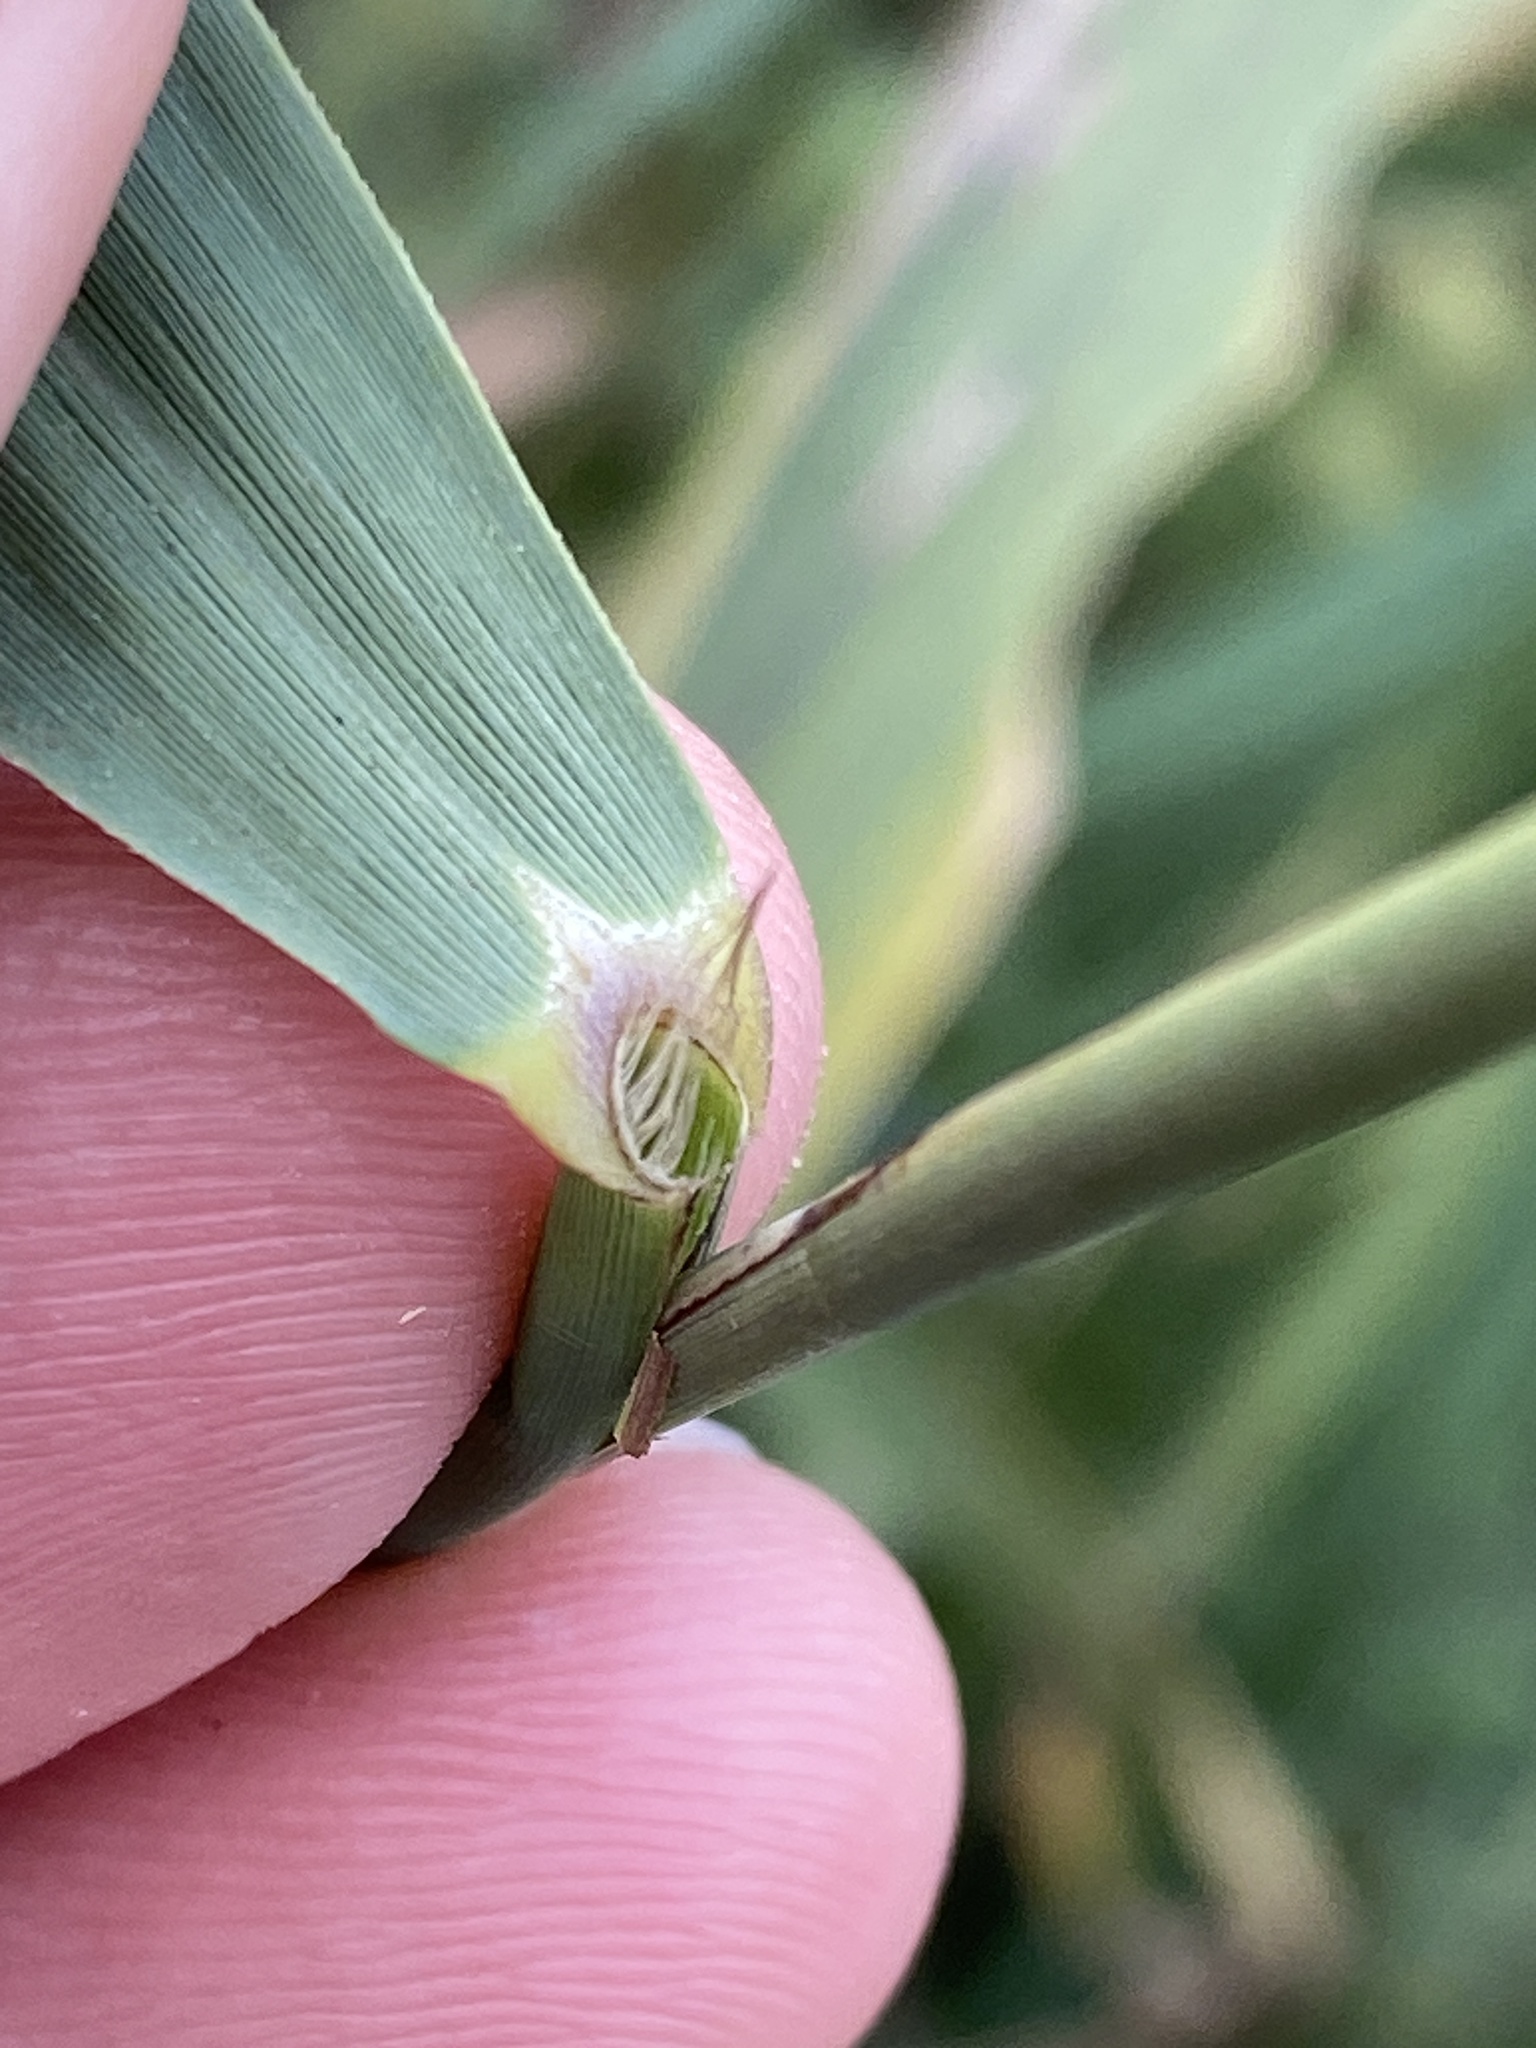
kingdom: Plantae
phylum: Tracheophyta
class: Liliopsida
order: Poales
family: Poaceae
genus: Phragmites
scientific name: Phragmites australis
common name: Common reed
